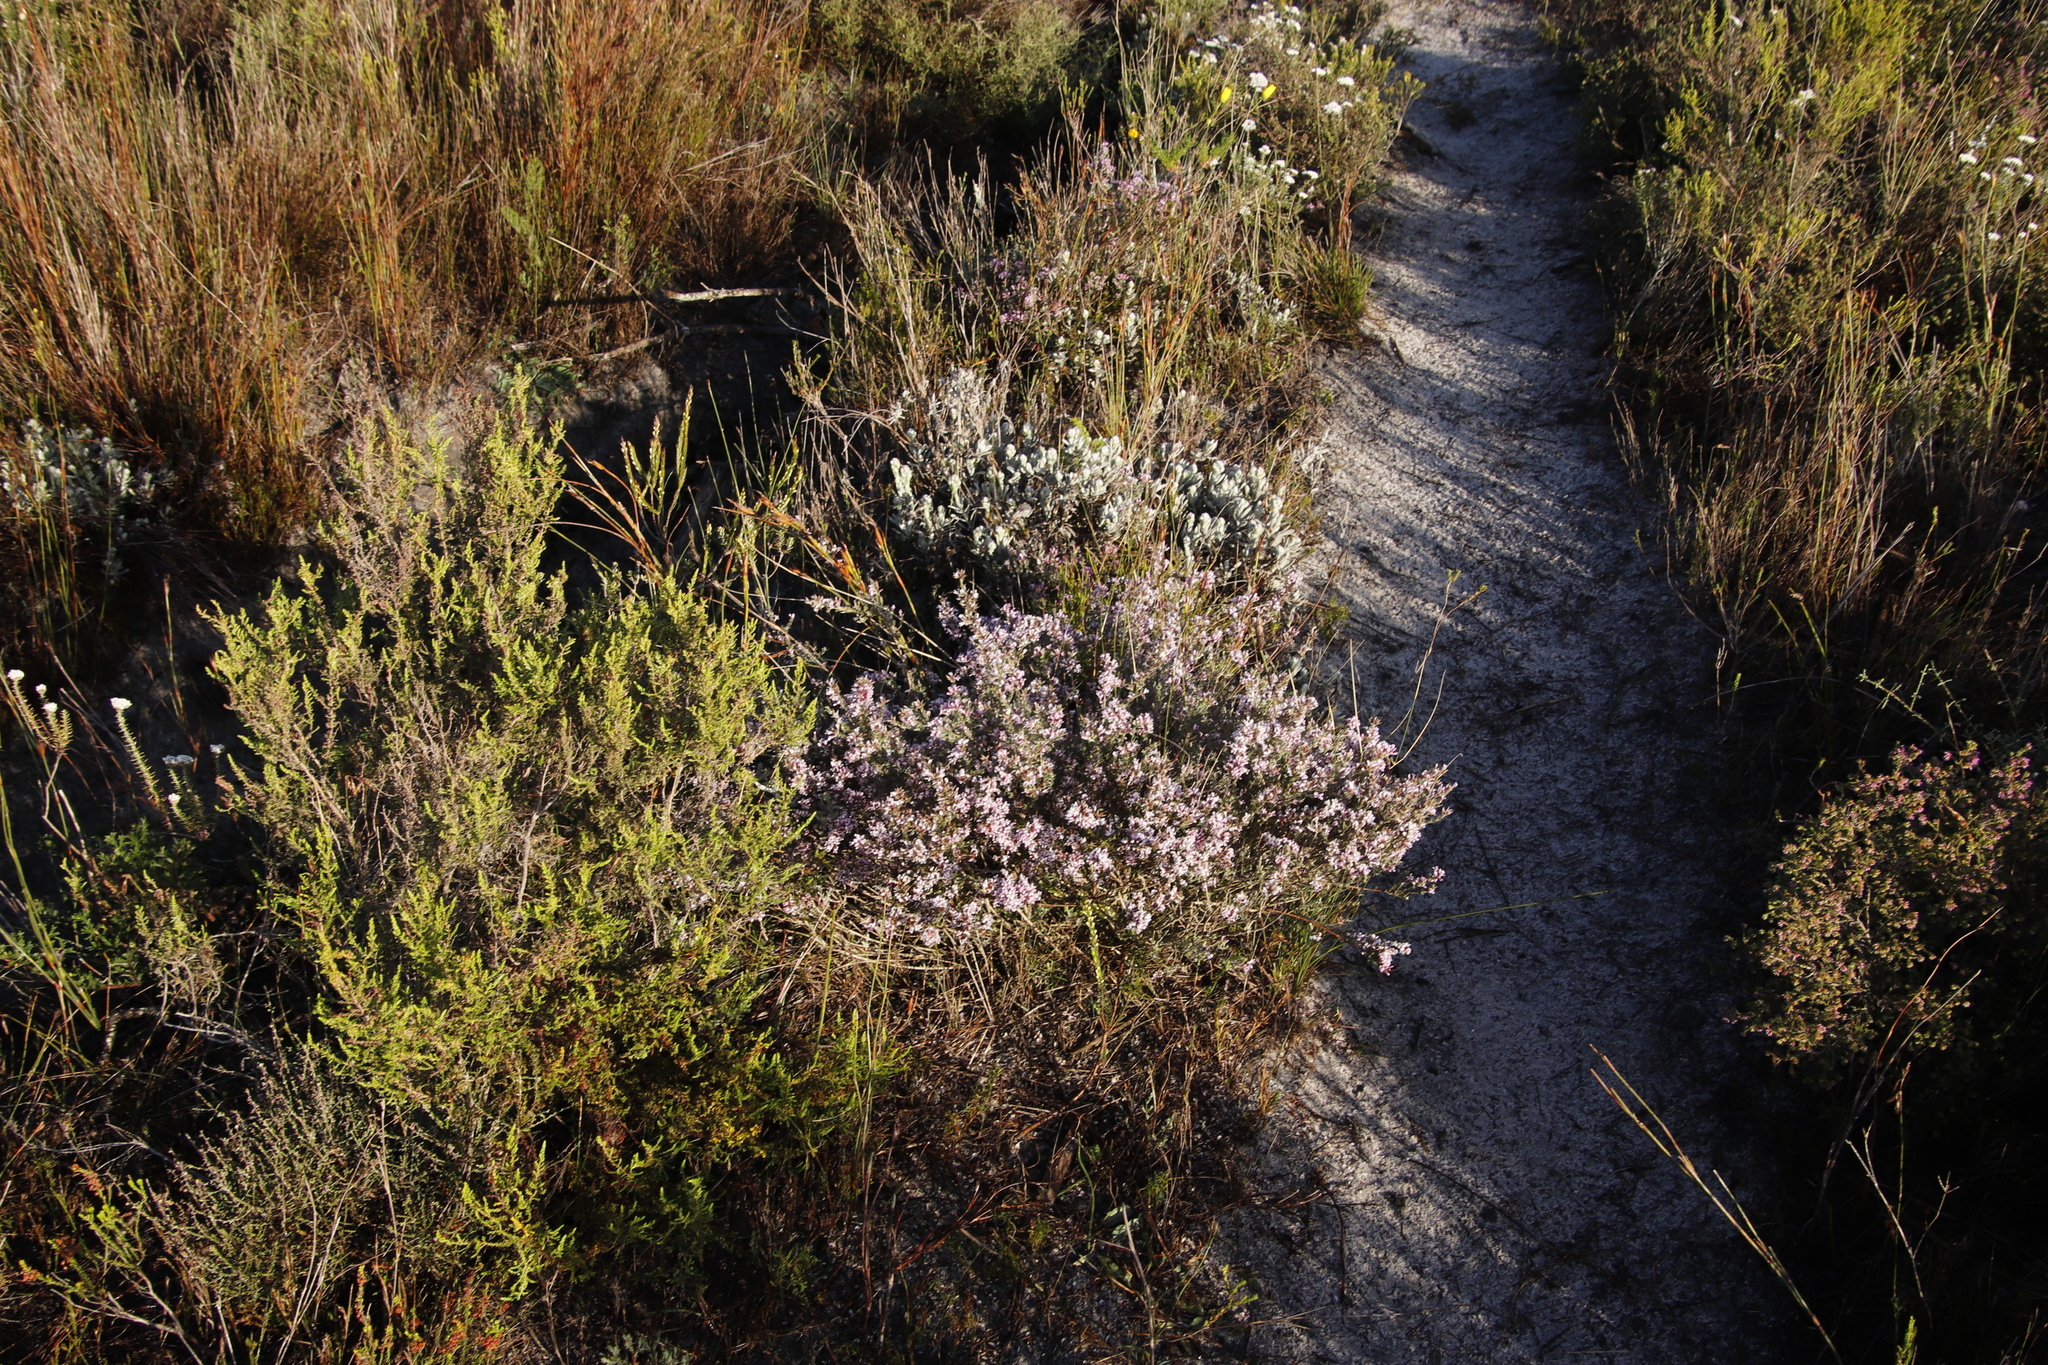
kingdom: Plantae
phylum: Tracheophyta
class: Magnoliopsida
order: Fabales
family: Fabaceae
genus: Amphithalea
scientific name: Amphithalea ericifolia
